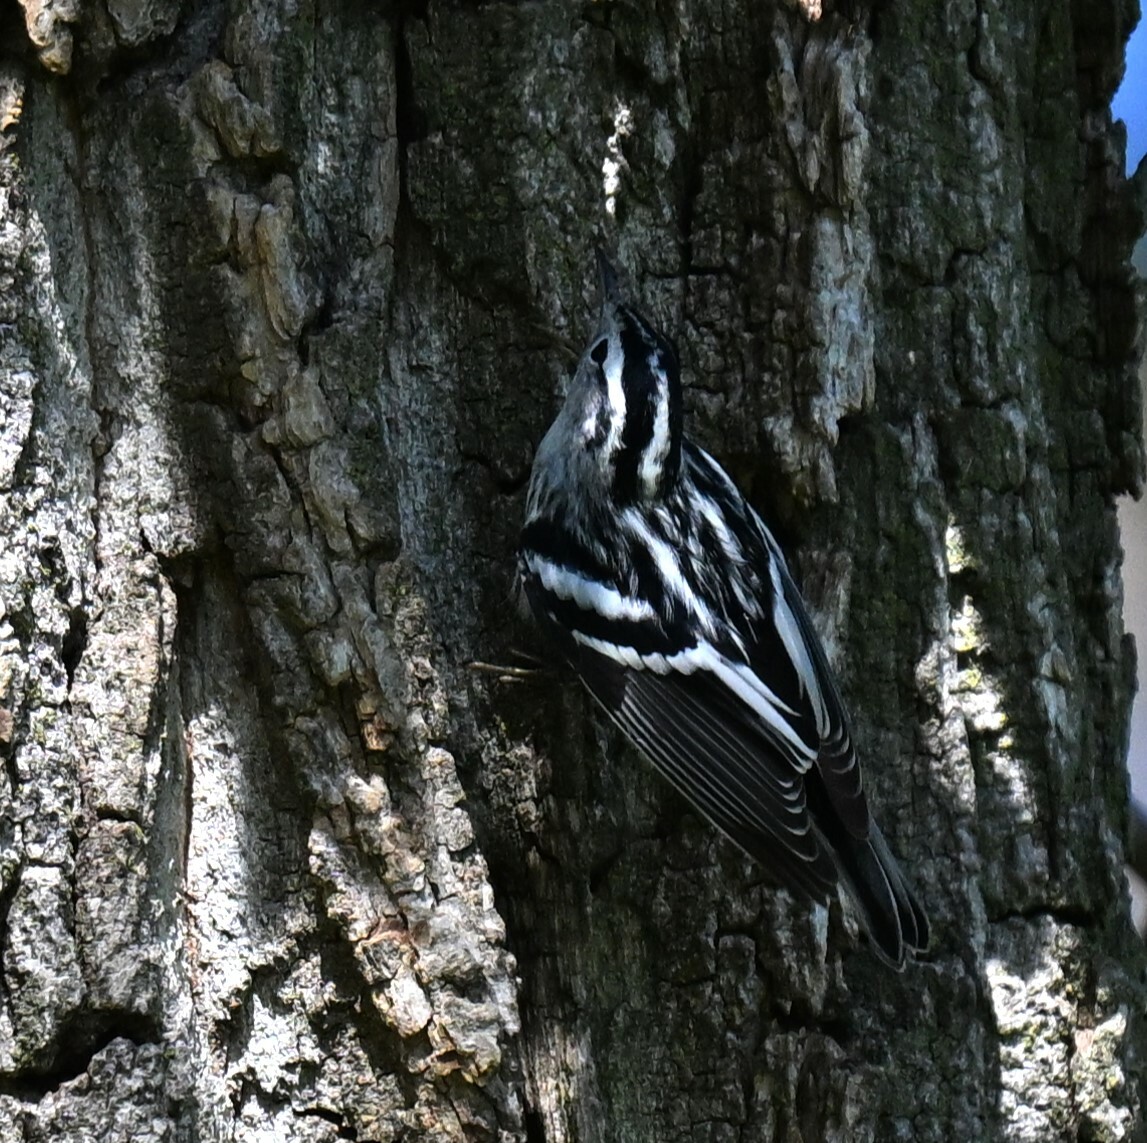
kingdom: Animalia
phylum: Chordata
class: Aves
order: Passeriformes
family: Parulidae
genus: Mniotilta
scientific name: Mniotilta varia
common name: Black-and-white warbler
